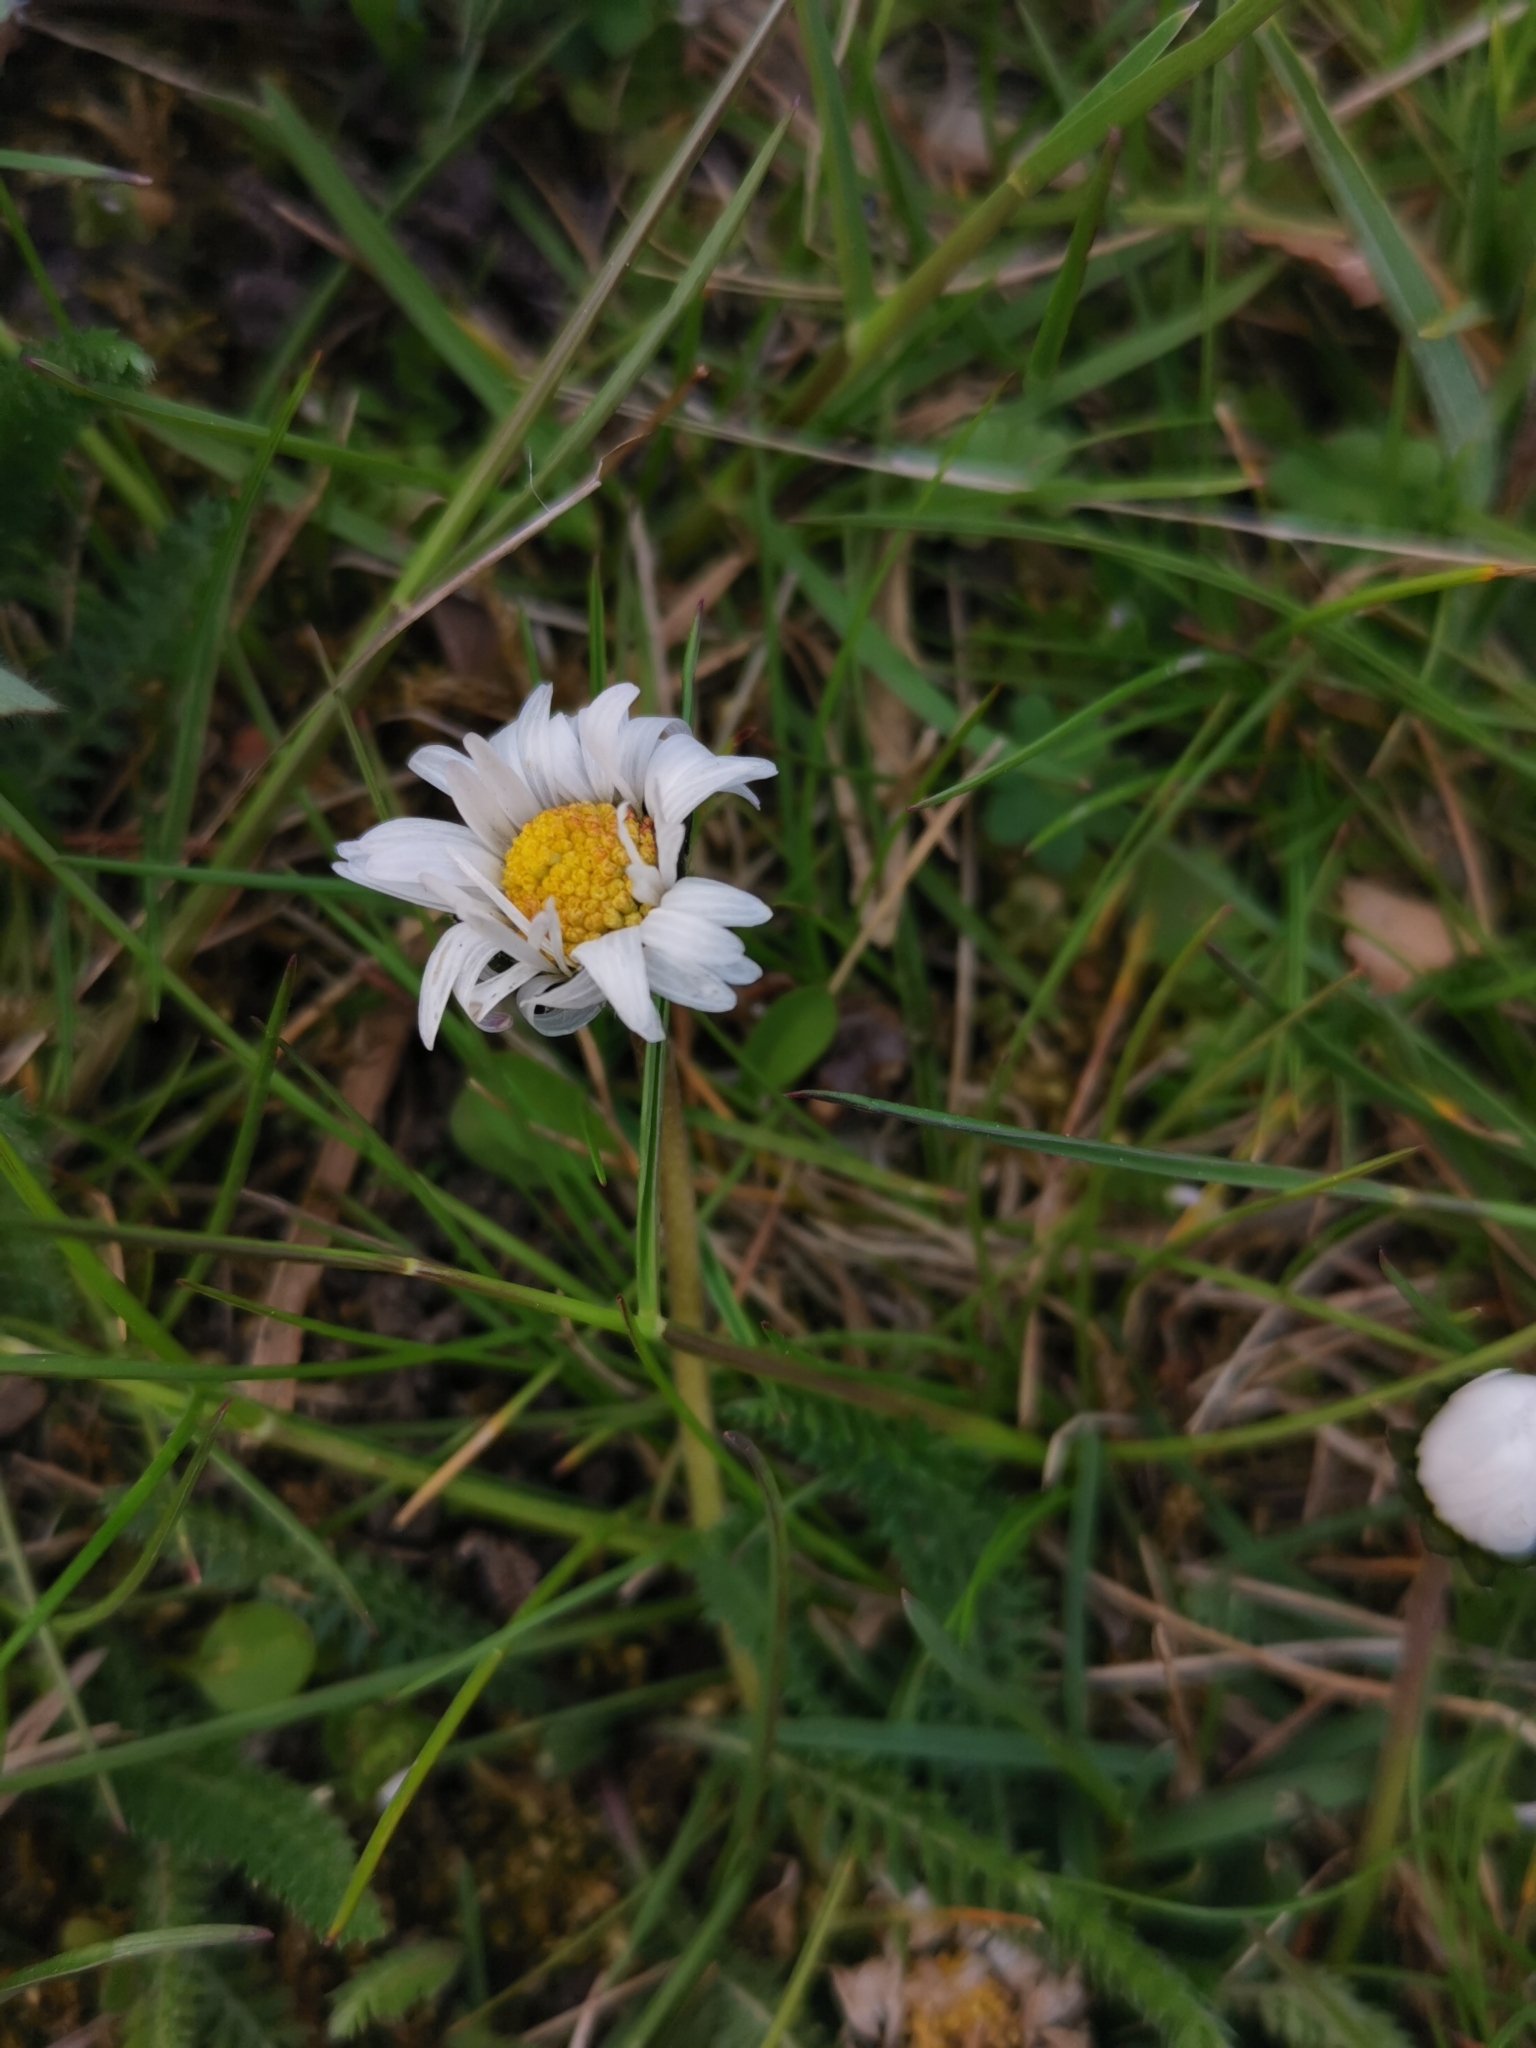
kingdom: Plantae
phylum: Tracheophyta
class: Magnoliopsida
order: Asterales
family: Asteraceae
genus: Bellis
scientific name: Bellis perennis
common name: Lawndaisy
